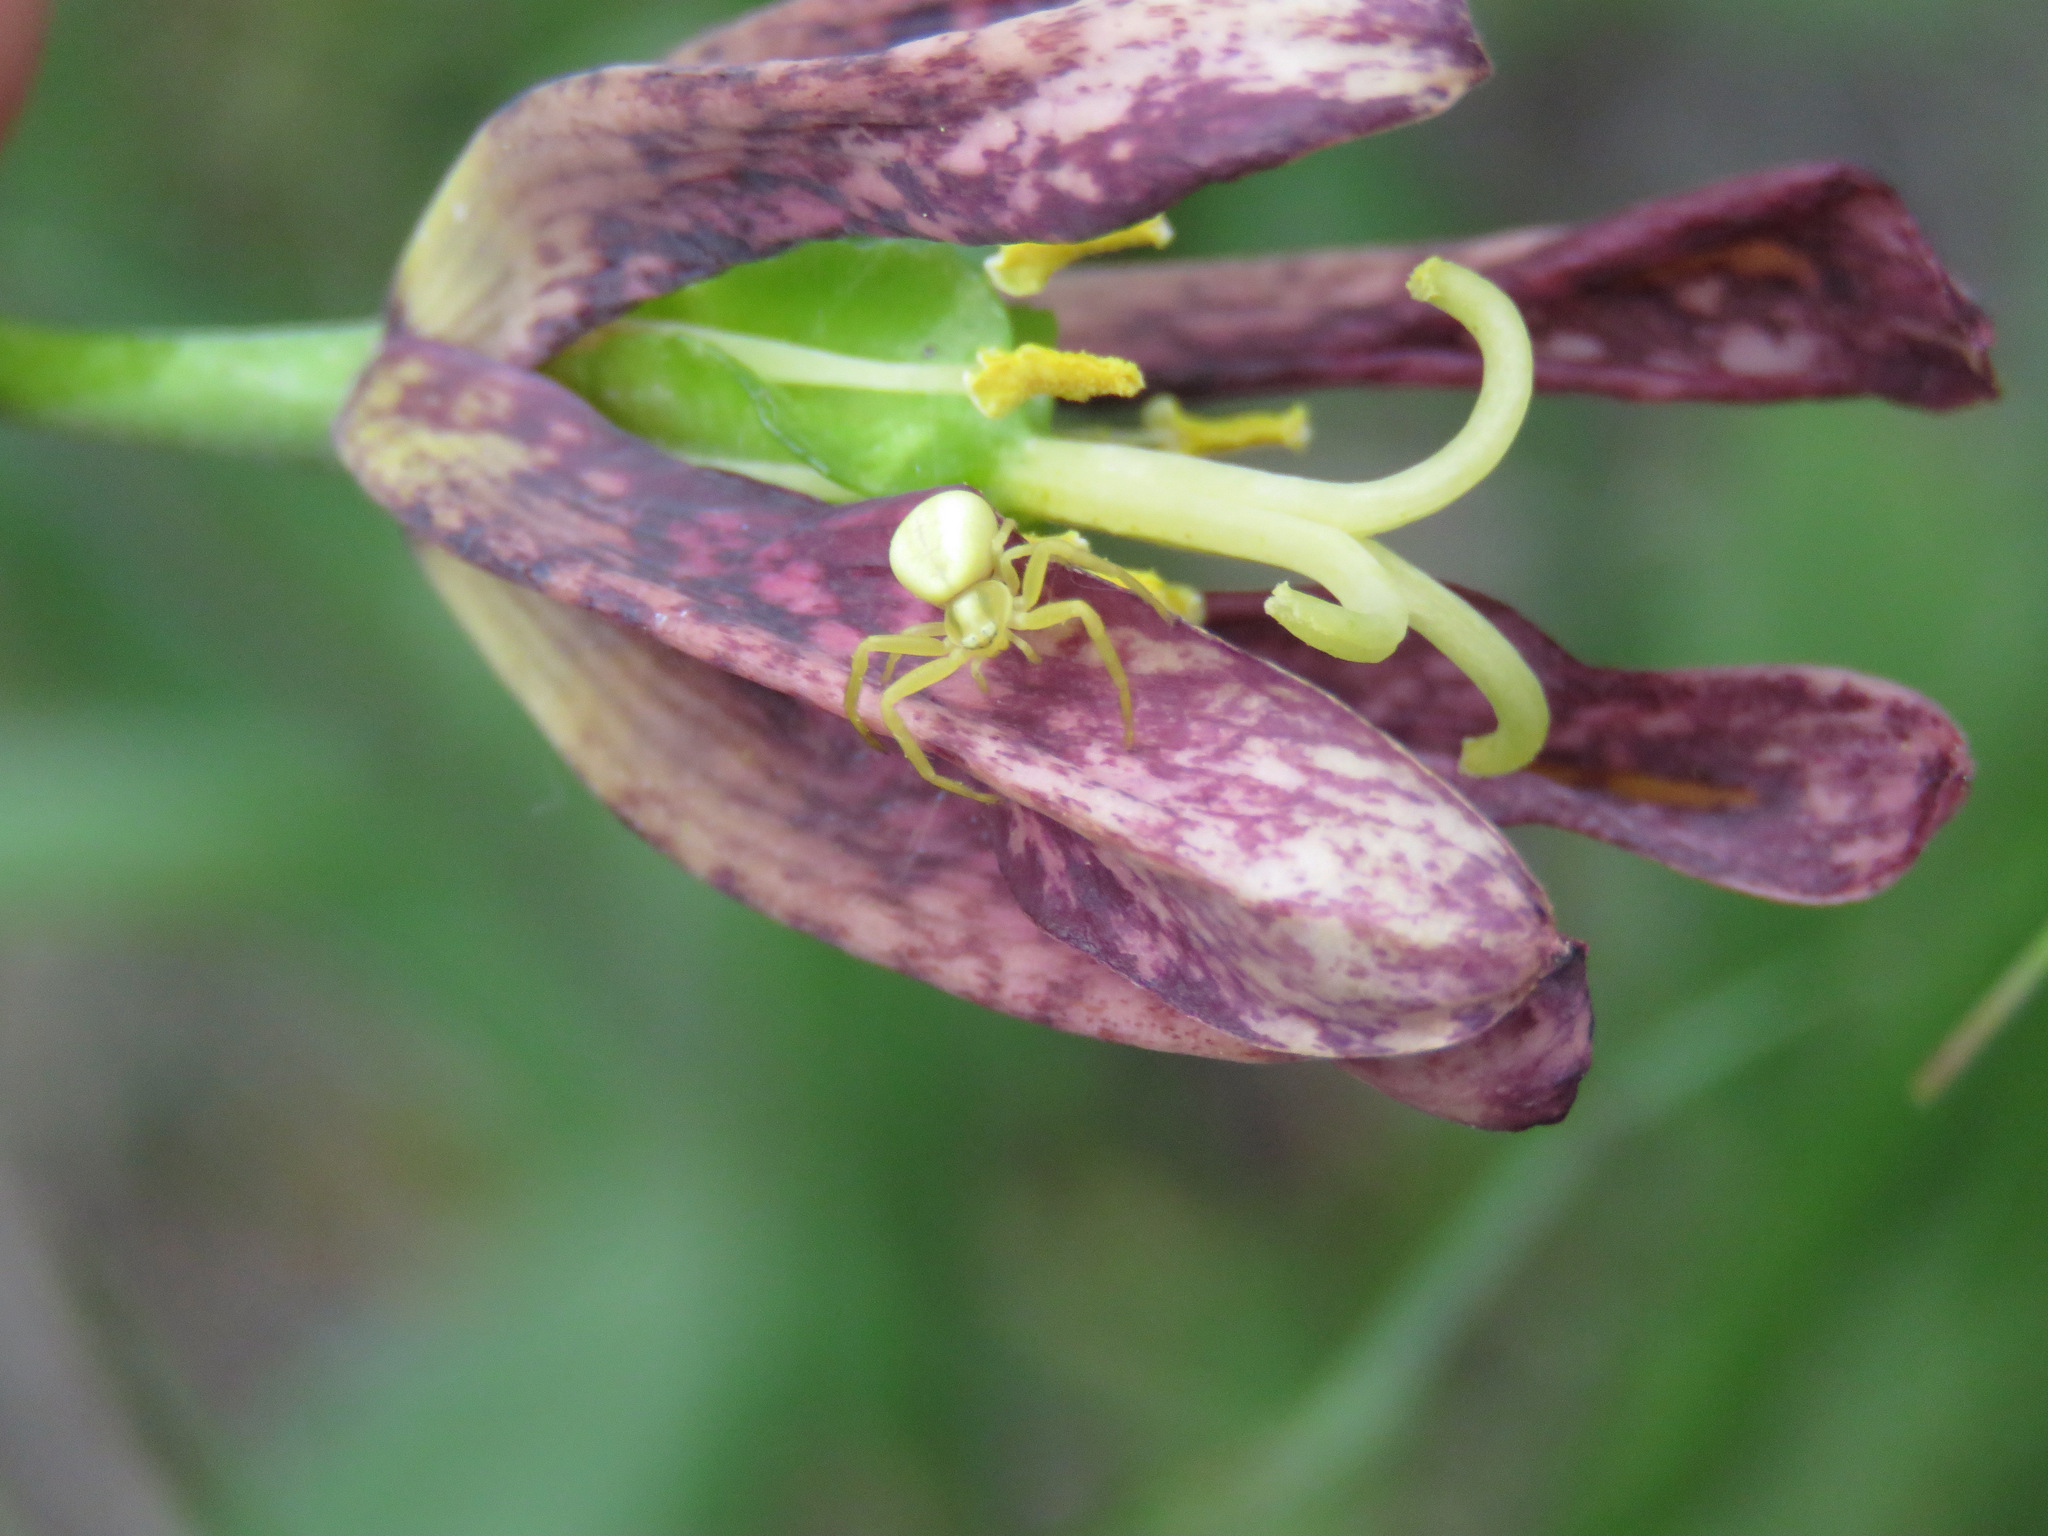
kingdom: Animalia
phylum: Arthropoda
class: Arachnida
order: Araneae
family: Thomisidae
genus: Misumena
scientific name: Misumena vatia
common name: Goldenrod crab spider
